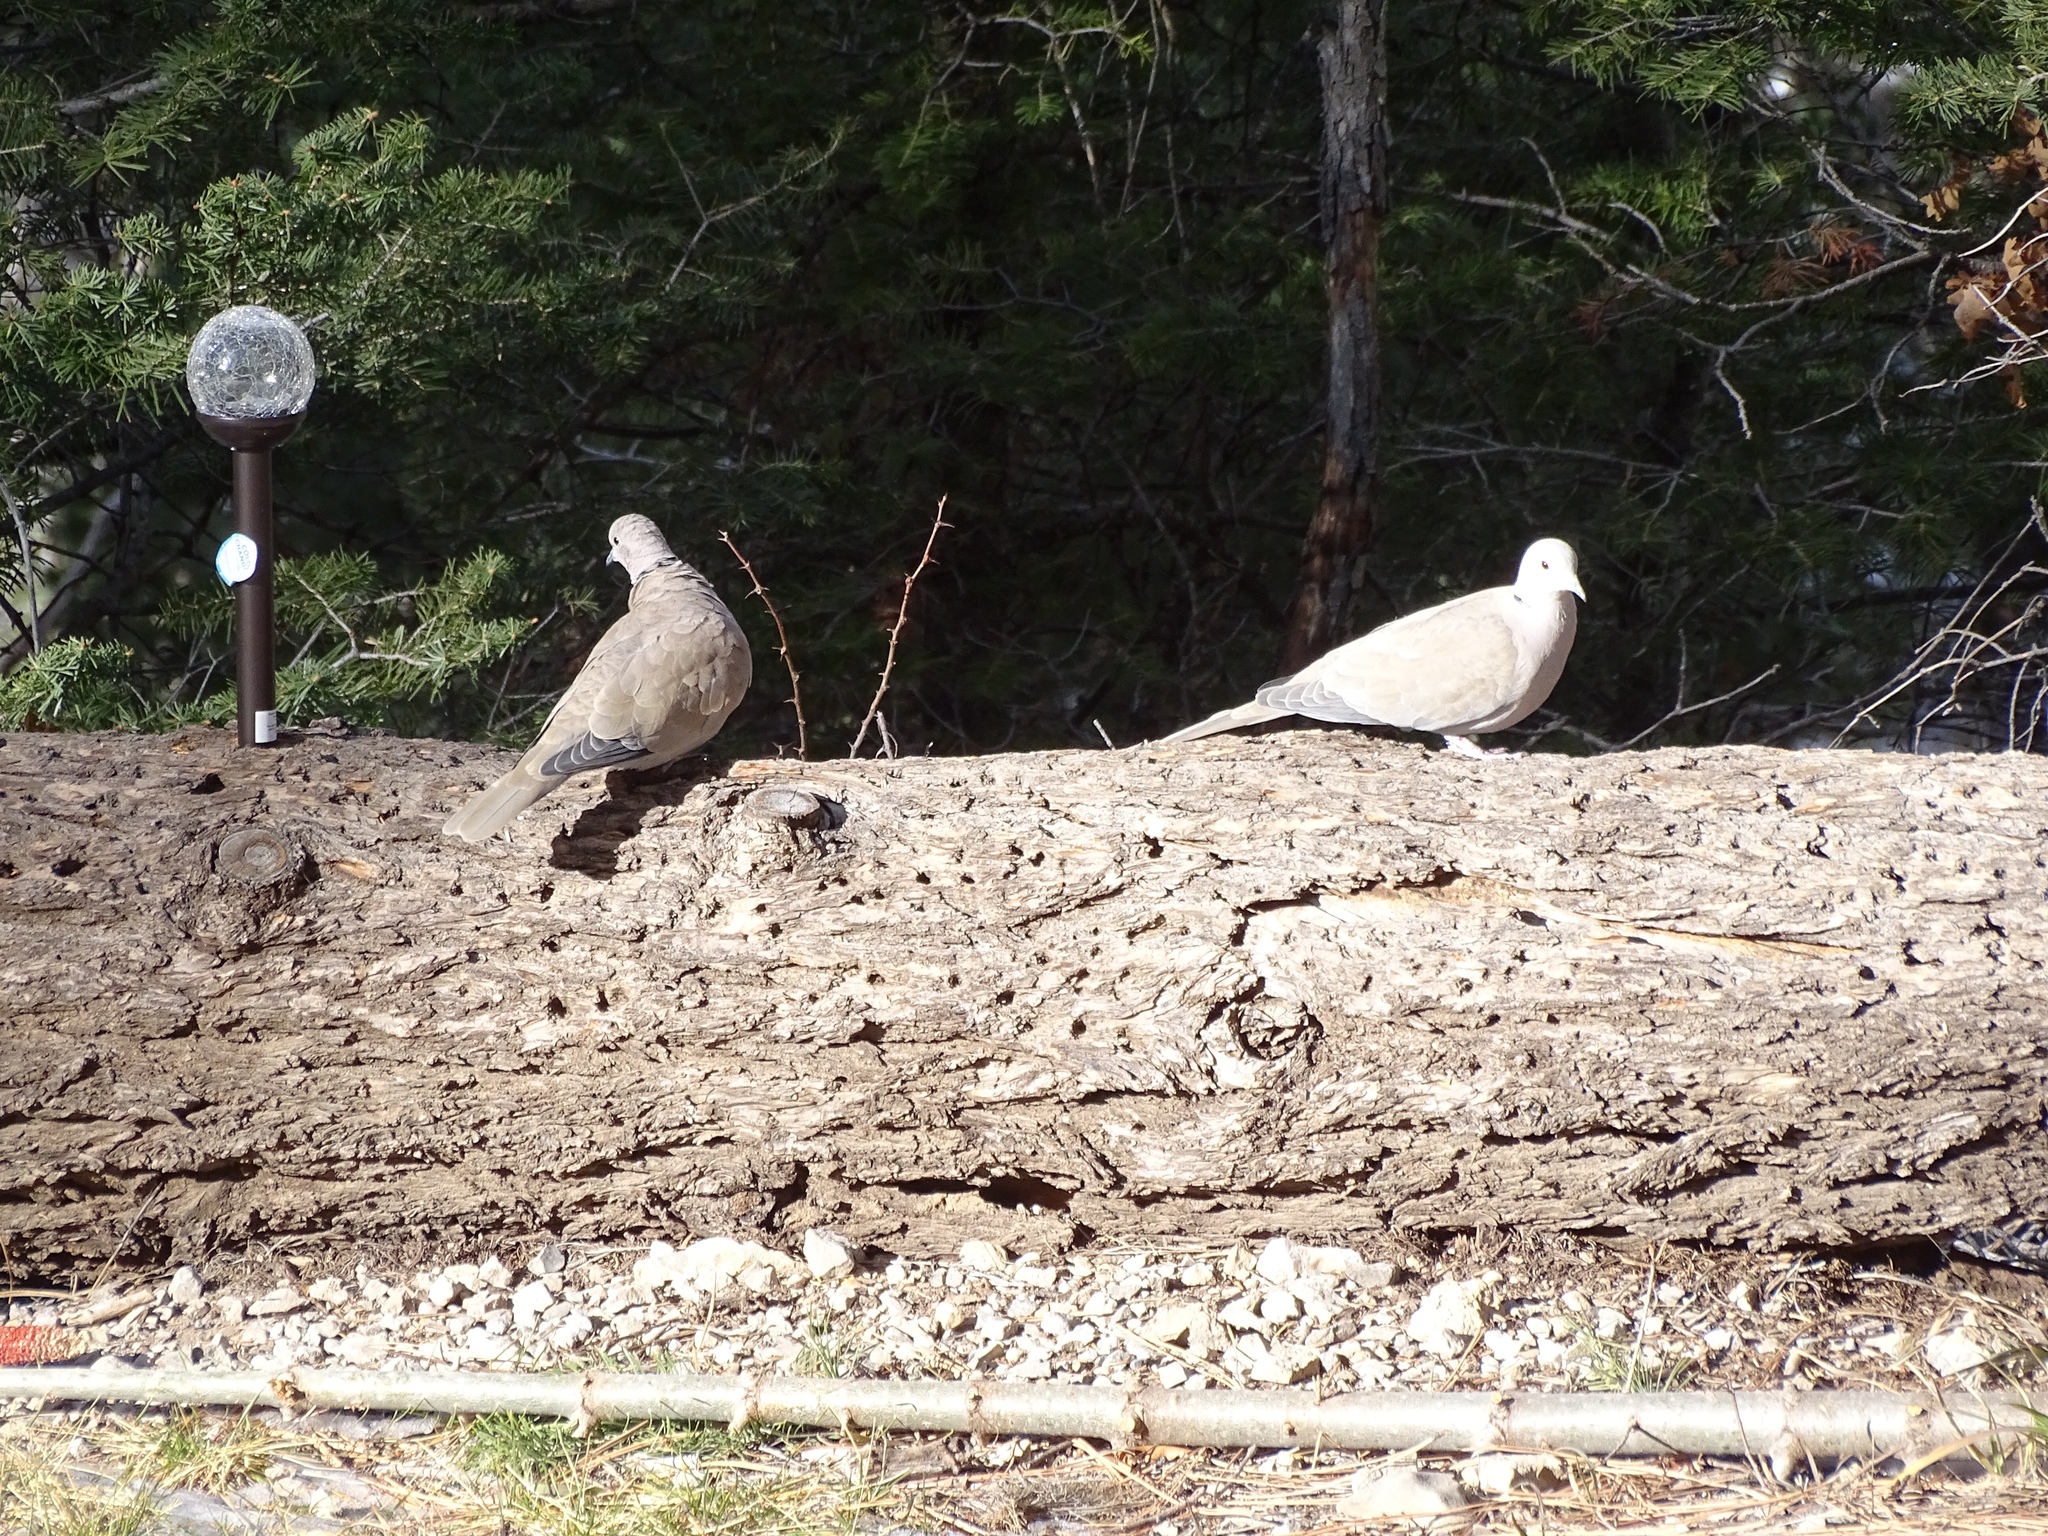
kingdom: Animalia
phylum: Chordata
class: Aves
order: Columbiformes
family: Columbidae
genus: Streptopelia
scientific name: Streptopelia decaocto
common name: Eurasian collared dove
